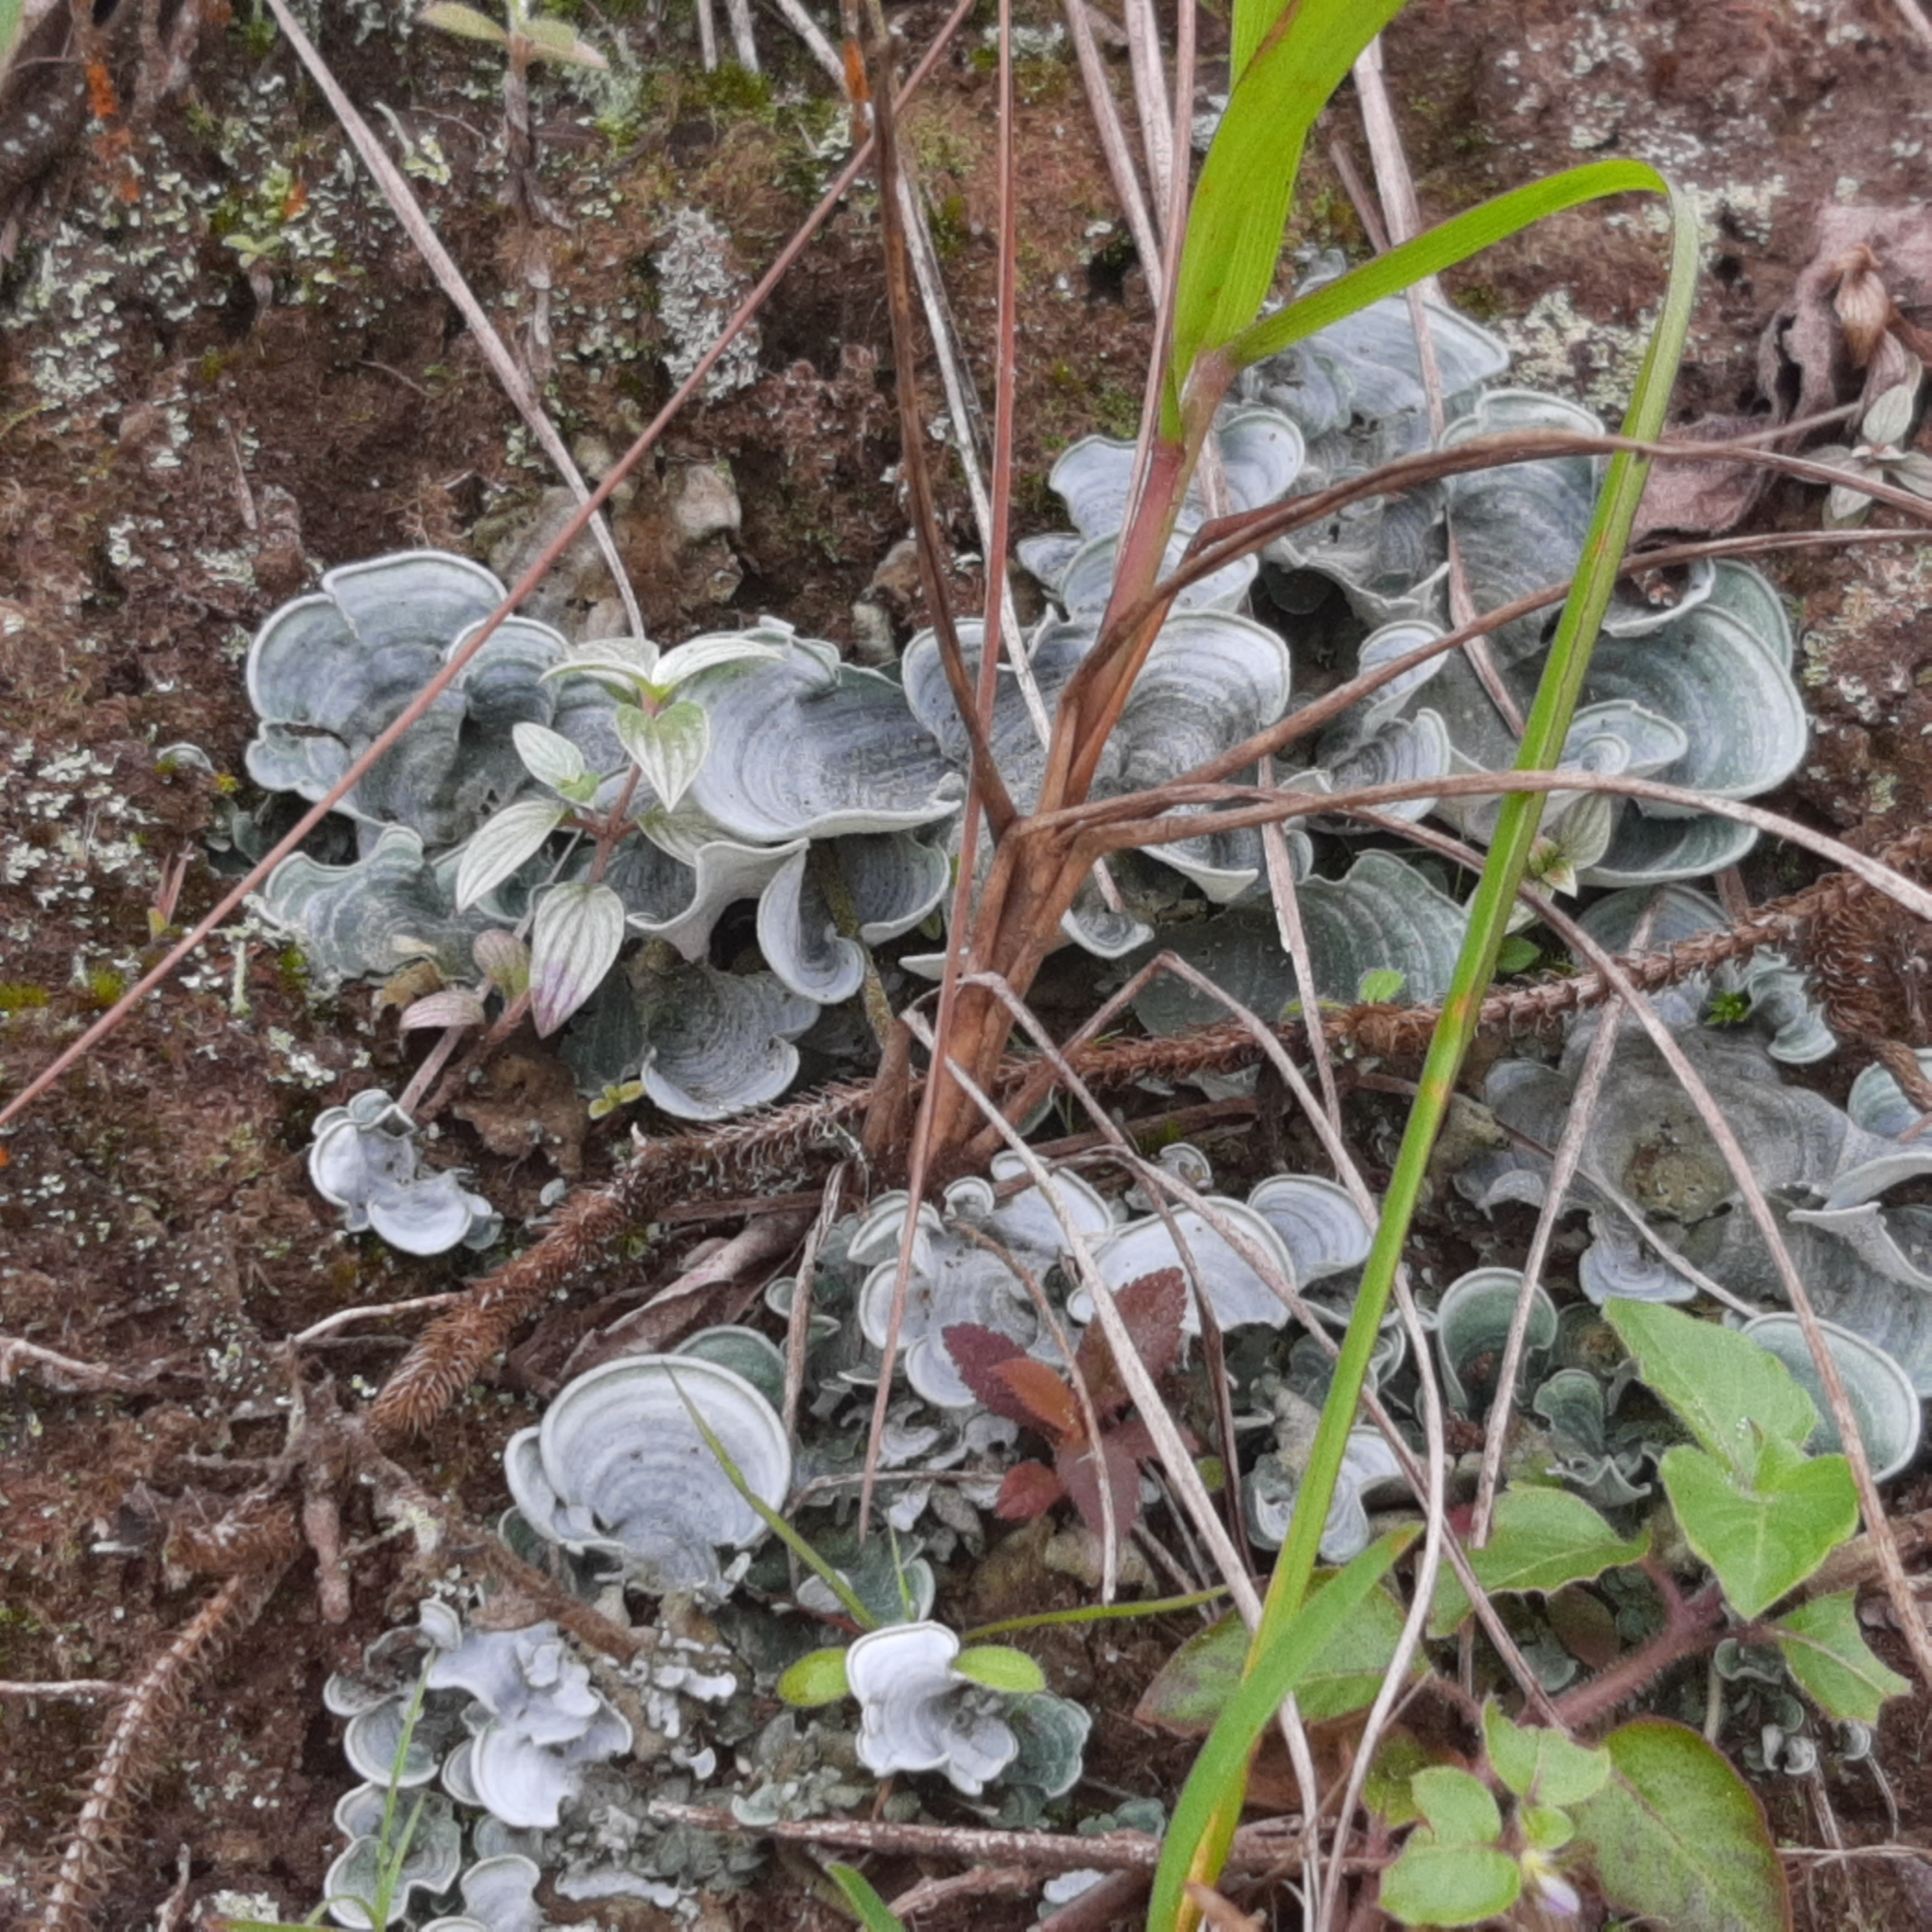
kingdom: Fungi
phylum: Basidiomycota
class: Agaricomycetes
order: Agaricales
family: Hygrophoraceae
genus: Cora
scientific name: Cora glabrata
